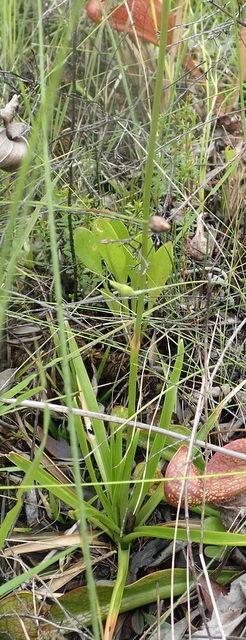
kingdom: Plantae
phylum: Tracheophyta
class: Liliopsida
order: Poales
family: Eriocaulaceae
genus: Eriocaulon
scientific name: Eriocaulon decangulare
